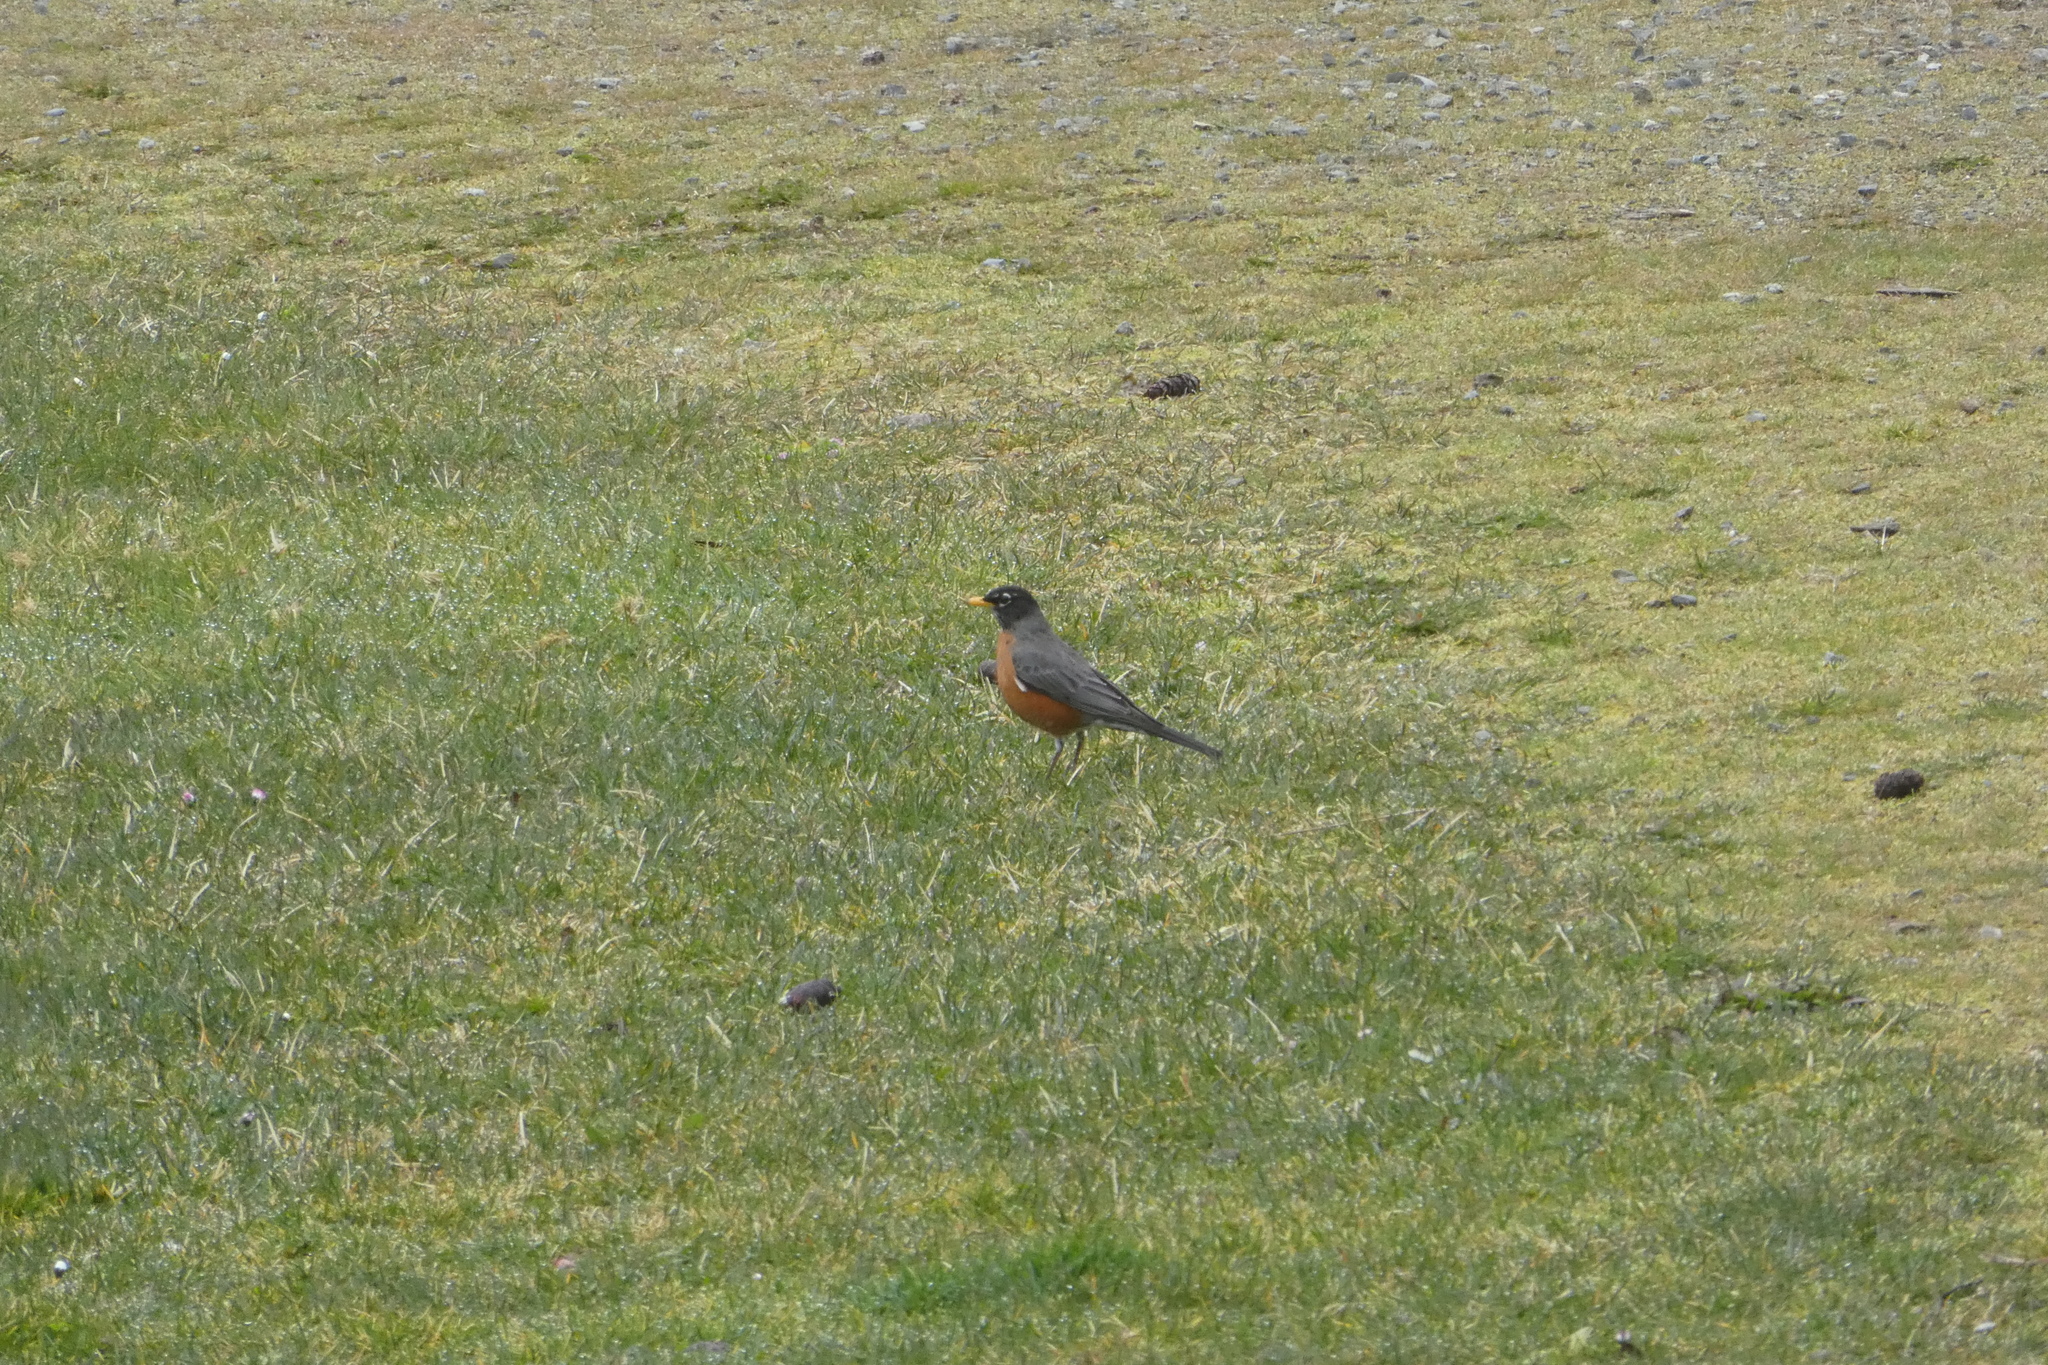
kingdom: Animalia
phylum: Chordata
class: Aves
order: Passeriformes
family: Turdidae
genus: Turdus
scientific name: Turdus migratorius
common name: American robin
